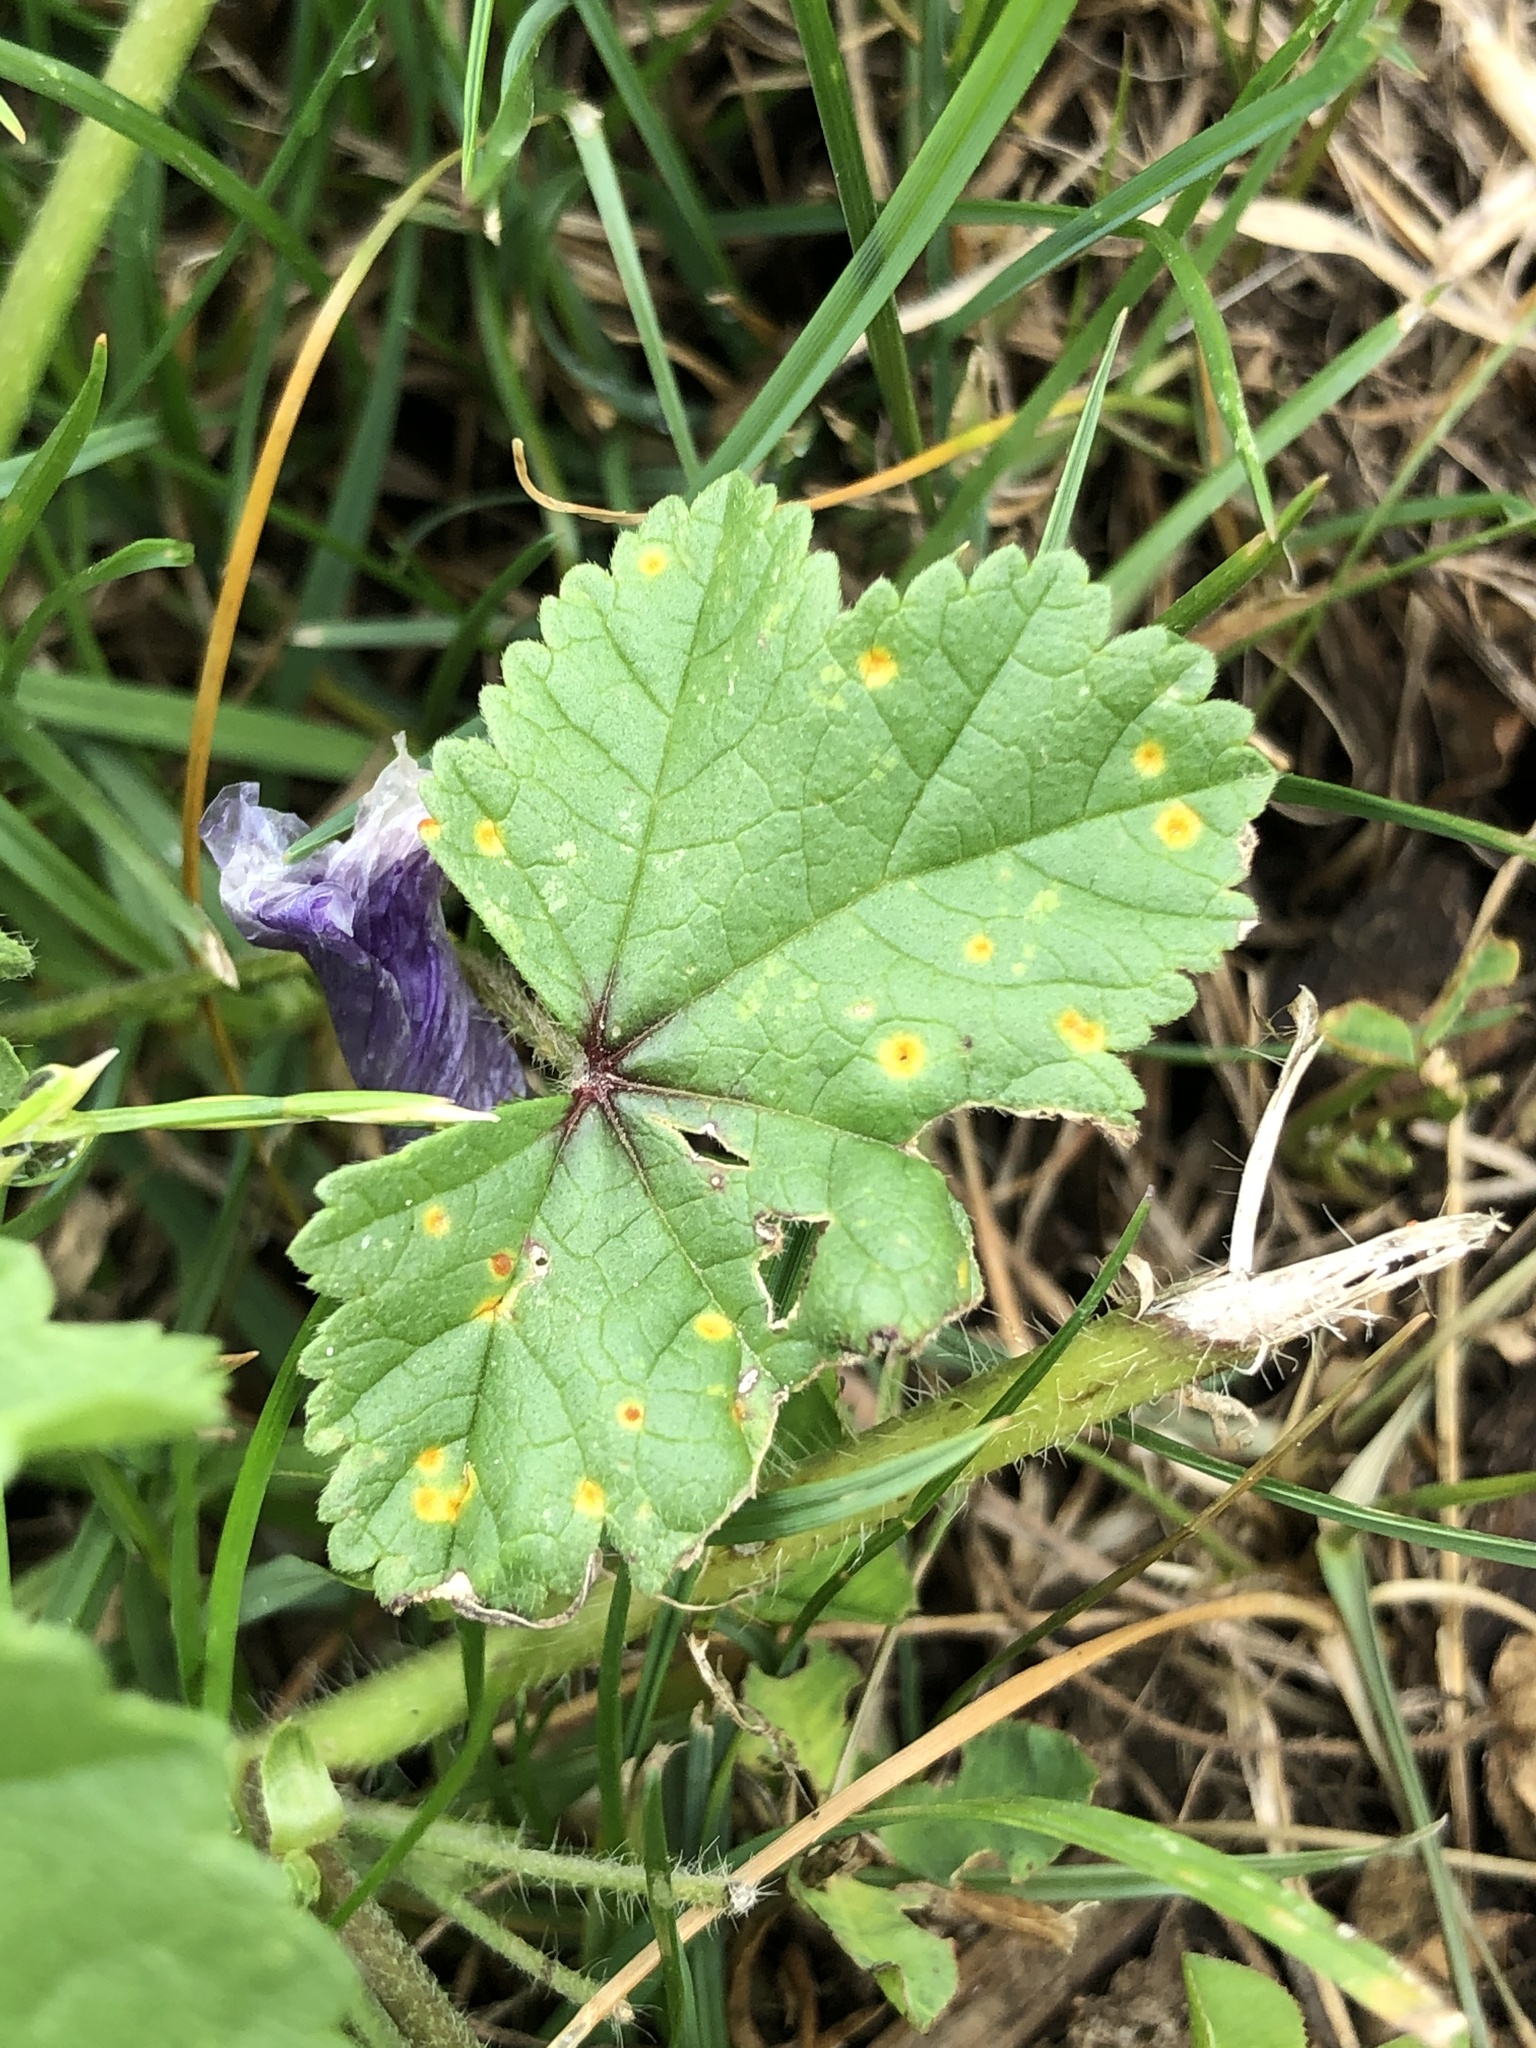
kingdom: Fungi
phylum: Basidiomycota
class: Pucciniomycetes
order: Pucciniales
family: Pucciniaceae
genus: Puccinia
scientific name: Puccinia malvacearum
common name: Hollyhock rust
